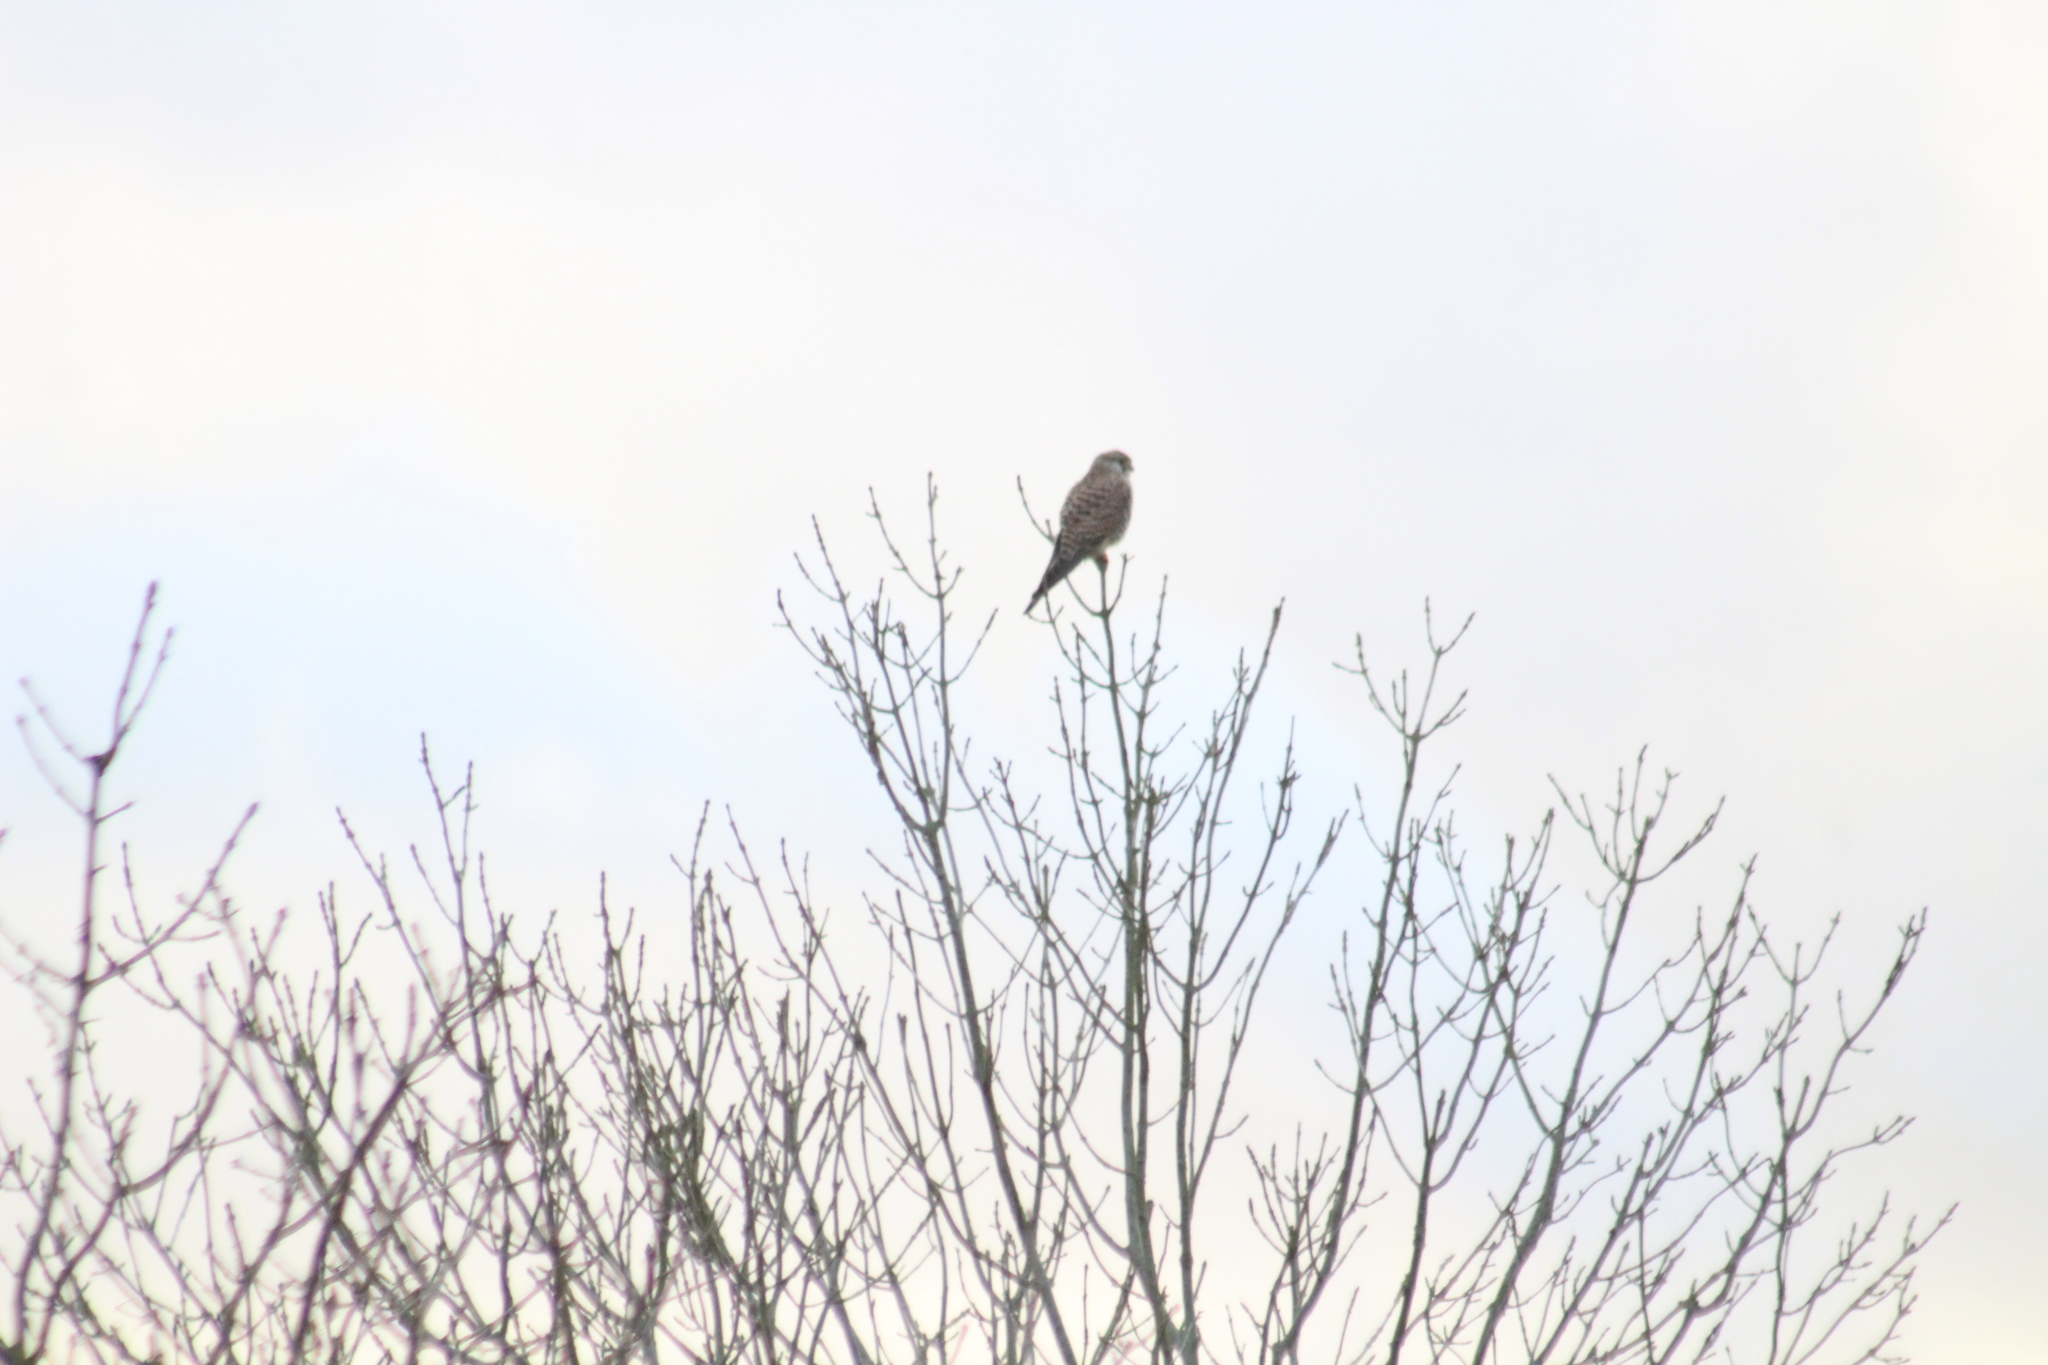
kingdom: Animalia
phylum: Chordata
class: Aves
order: Falconiformes
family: Falconidae
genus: Falco
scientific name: Falco tinnunculus
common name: Common kestrel
